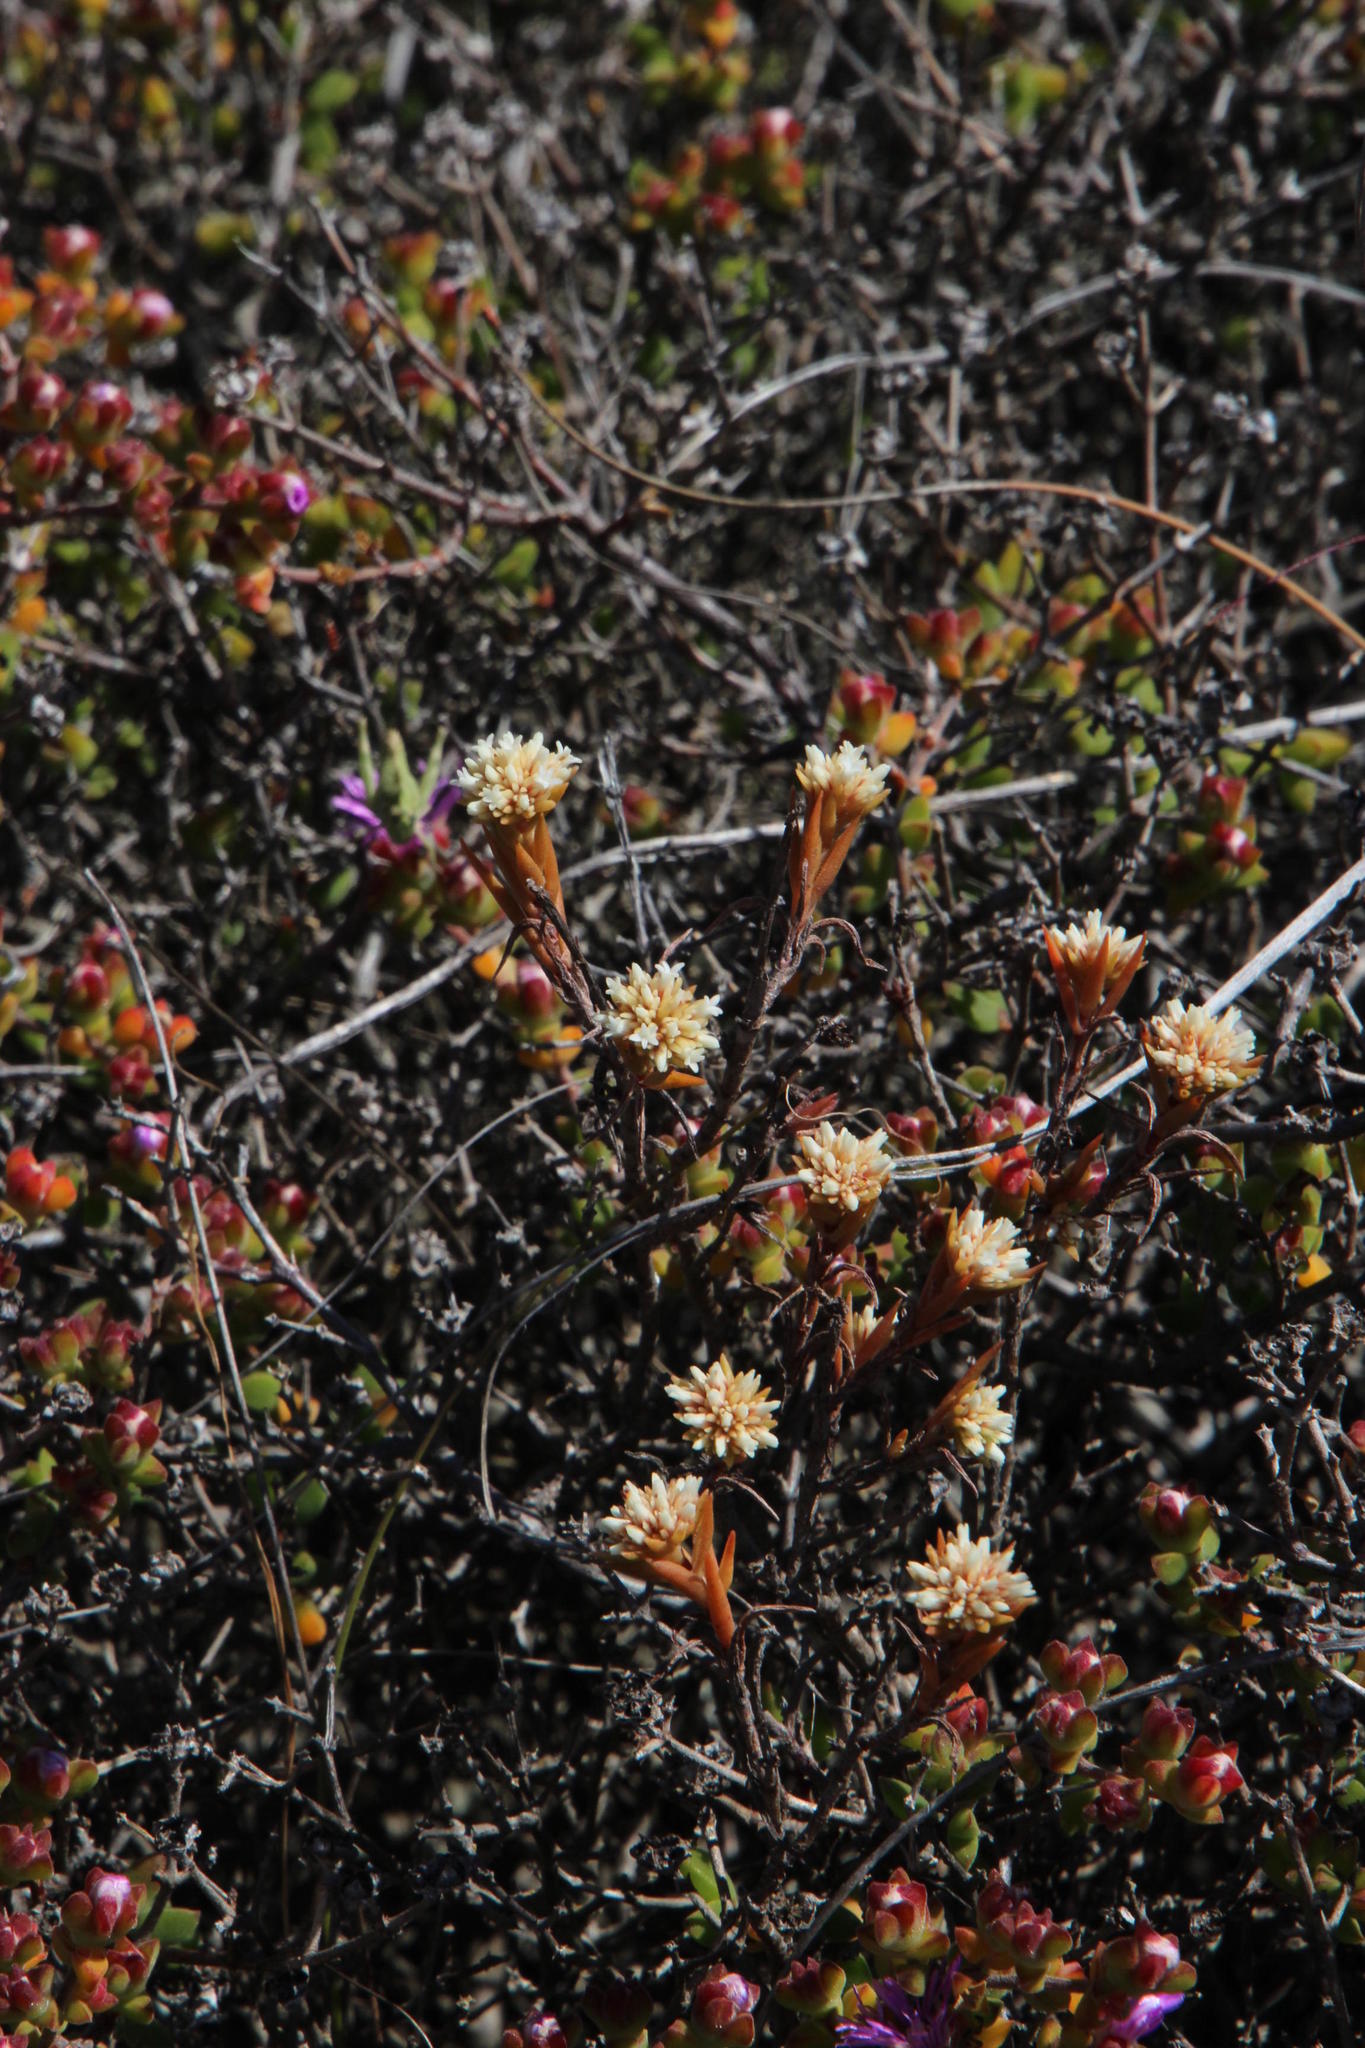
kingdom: Plantae
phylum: Tracheophyta
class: Magnoliopsida
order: Saxifragales
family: Crassulaceae
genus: Crassula
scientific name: Crassula subulata
